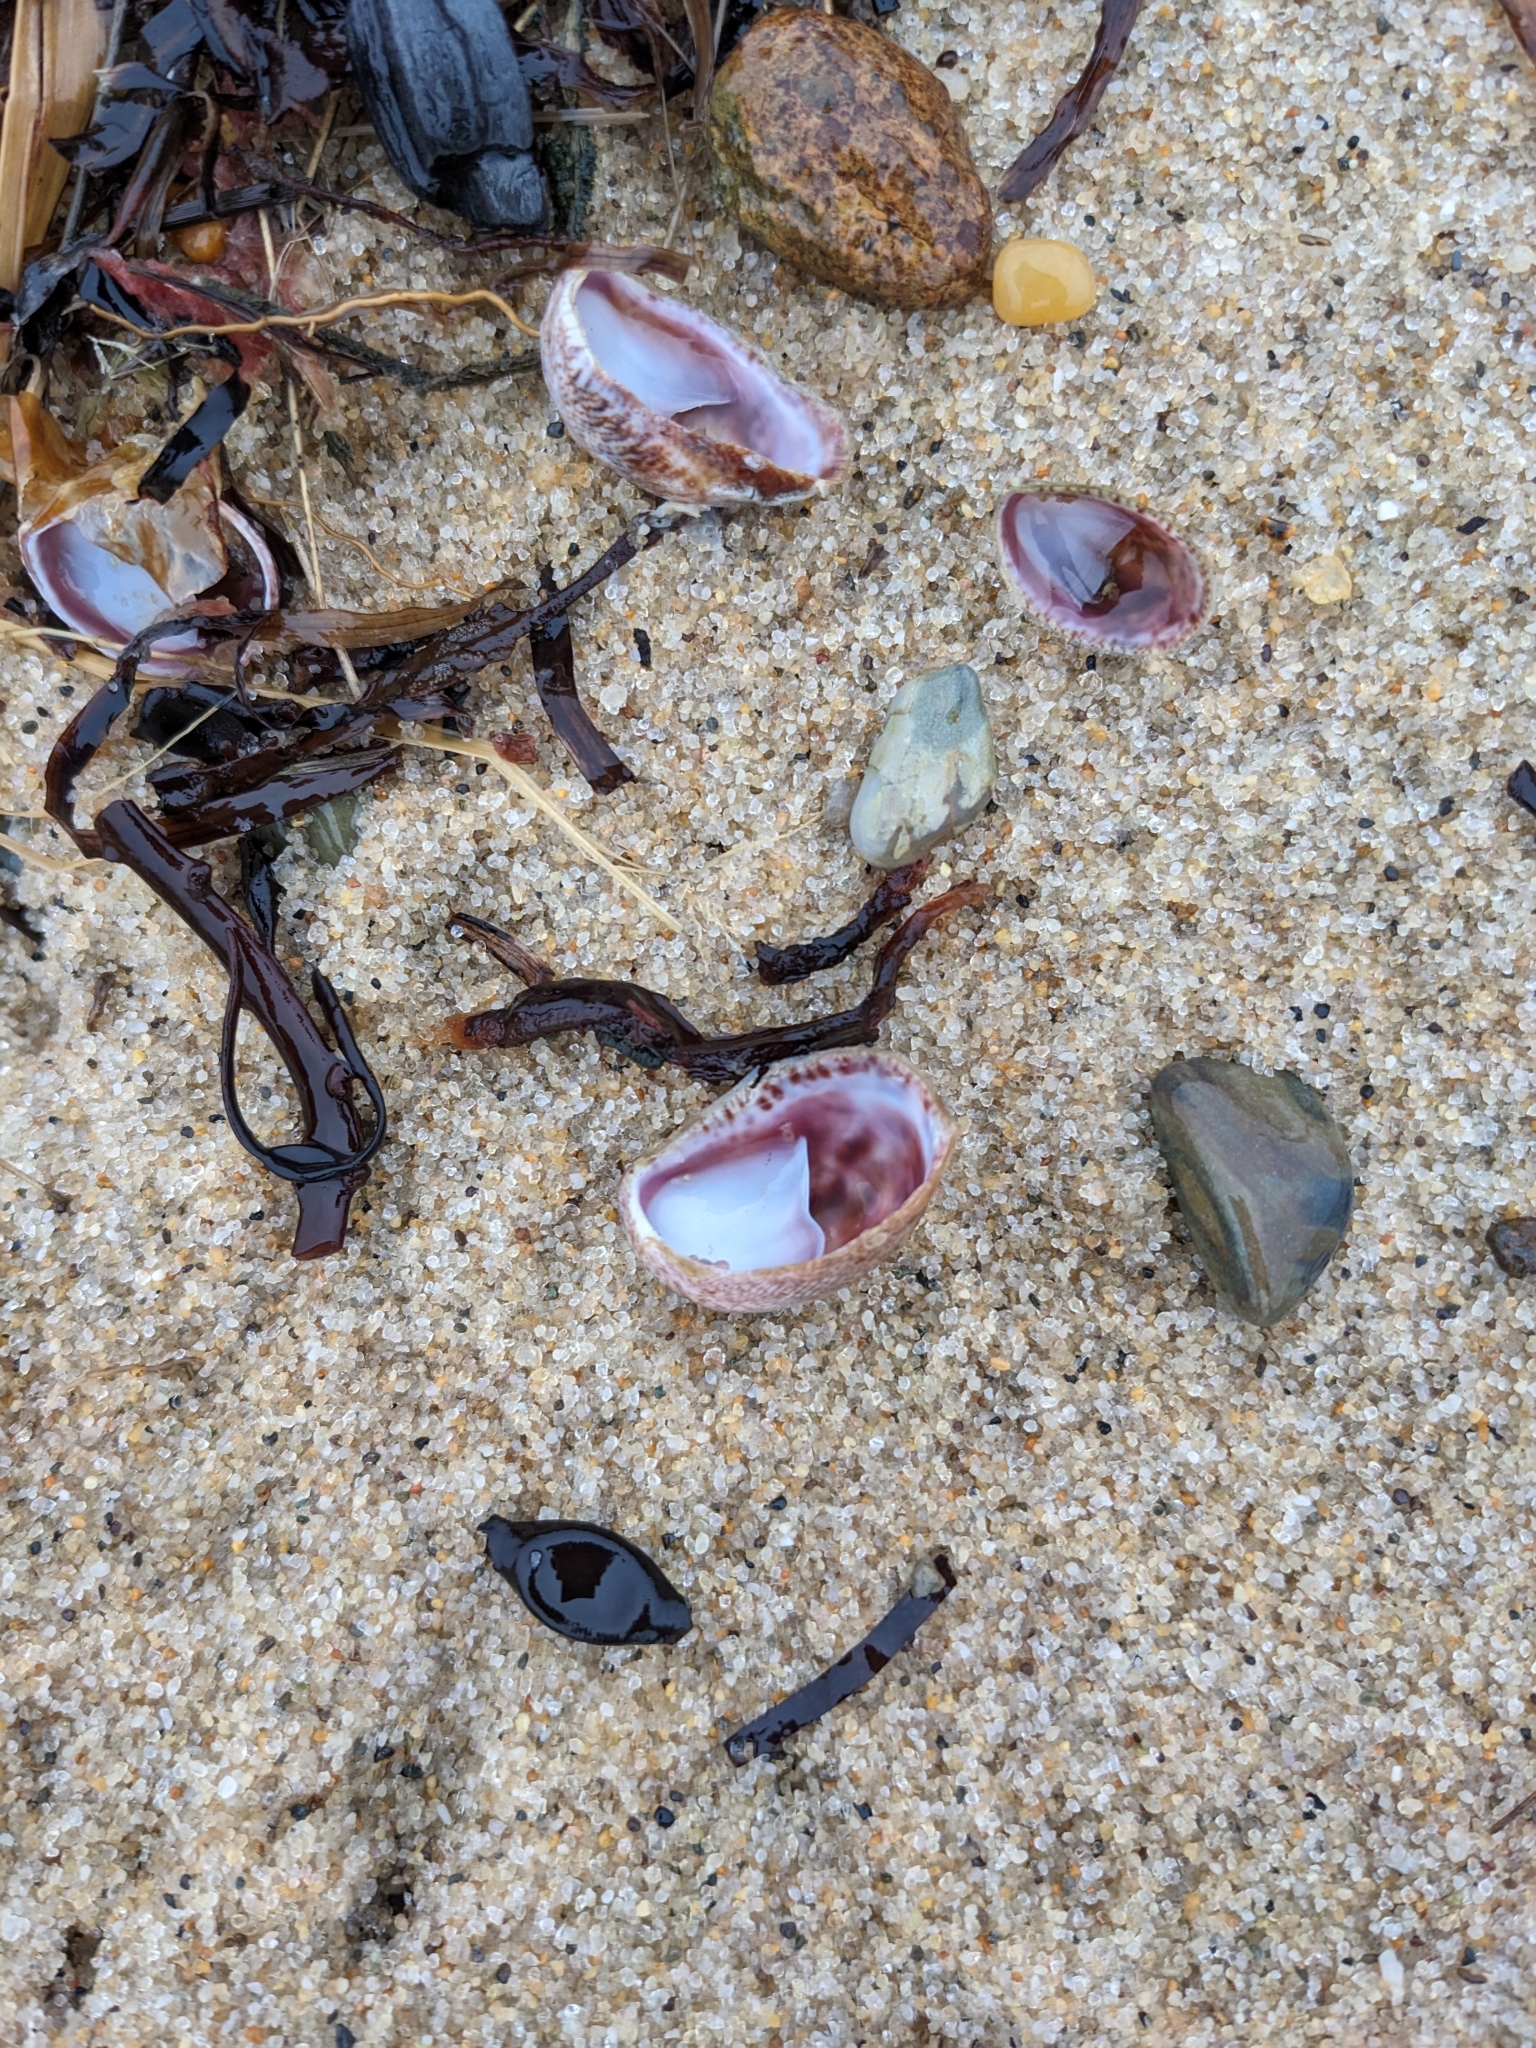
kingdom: Animalia
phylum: Mollusca
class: Gastropoda
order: Littorinimorpha
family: Calyptraeidae
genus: Crepidula
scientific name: Crepidula fornicata
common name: Slipper limpet
